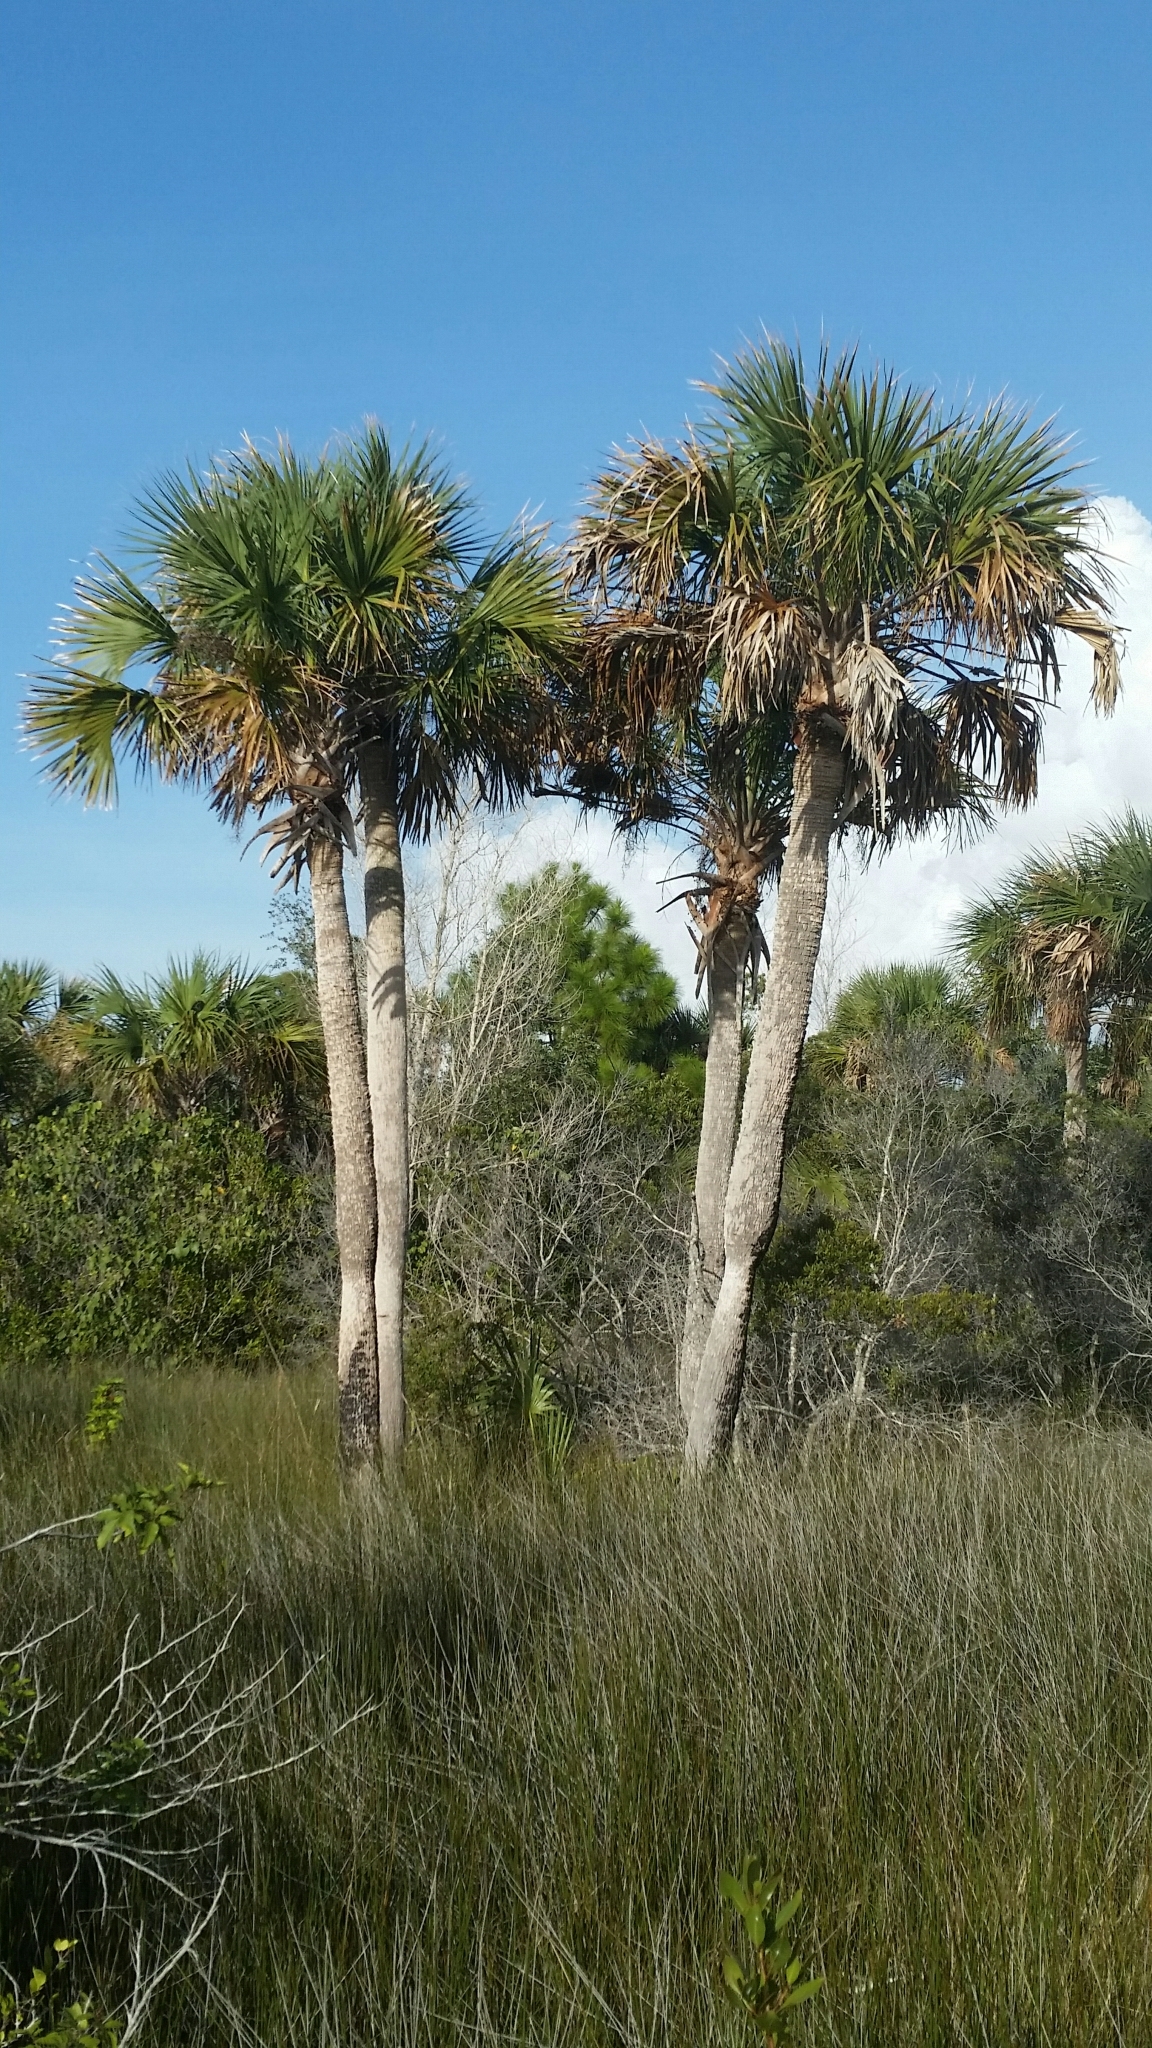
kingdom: Plantae
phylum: Tracheophyta
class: Liliopsida
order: Arecales
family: Arecaceae
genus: Sabal
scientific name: Sabal palmetto
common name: Blue palmetto
